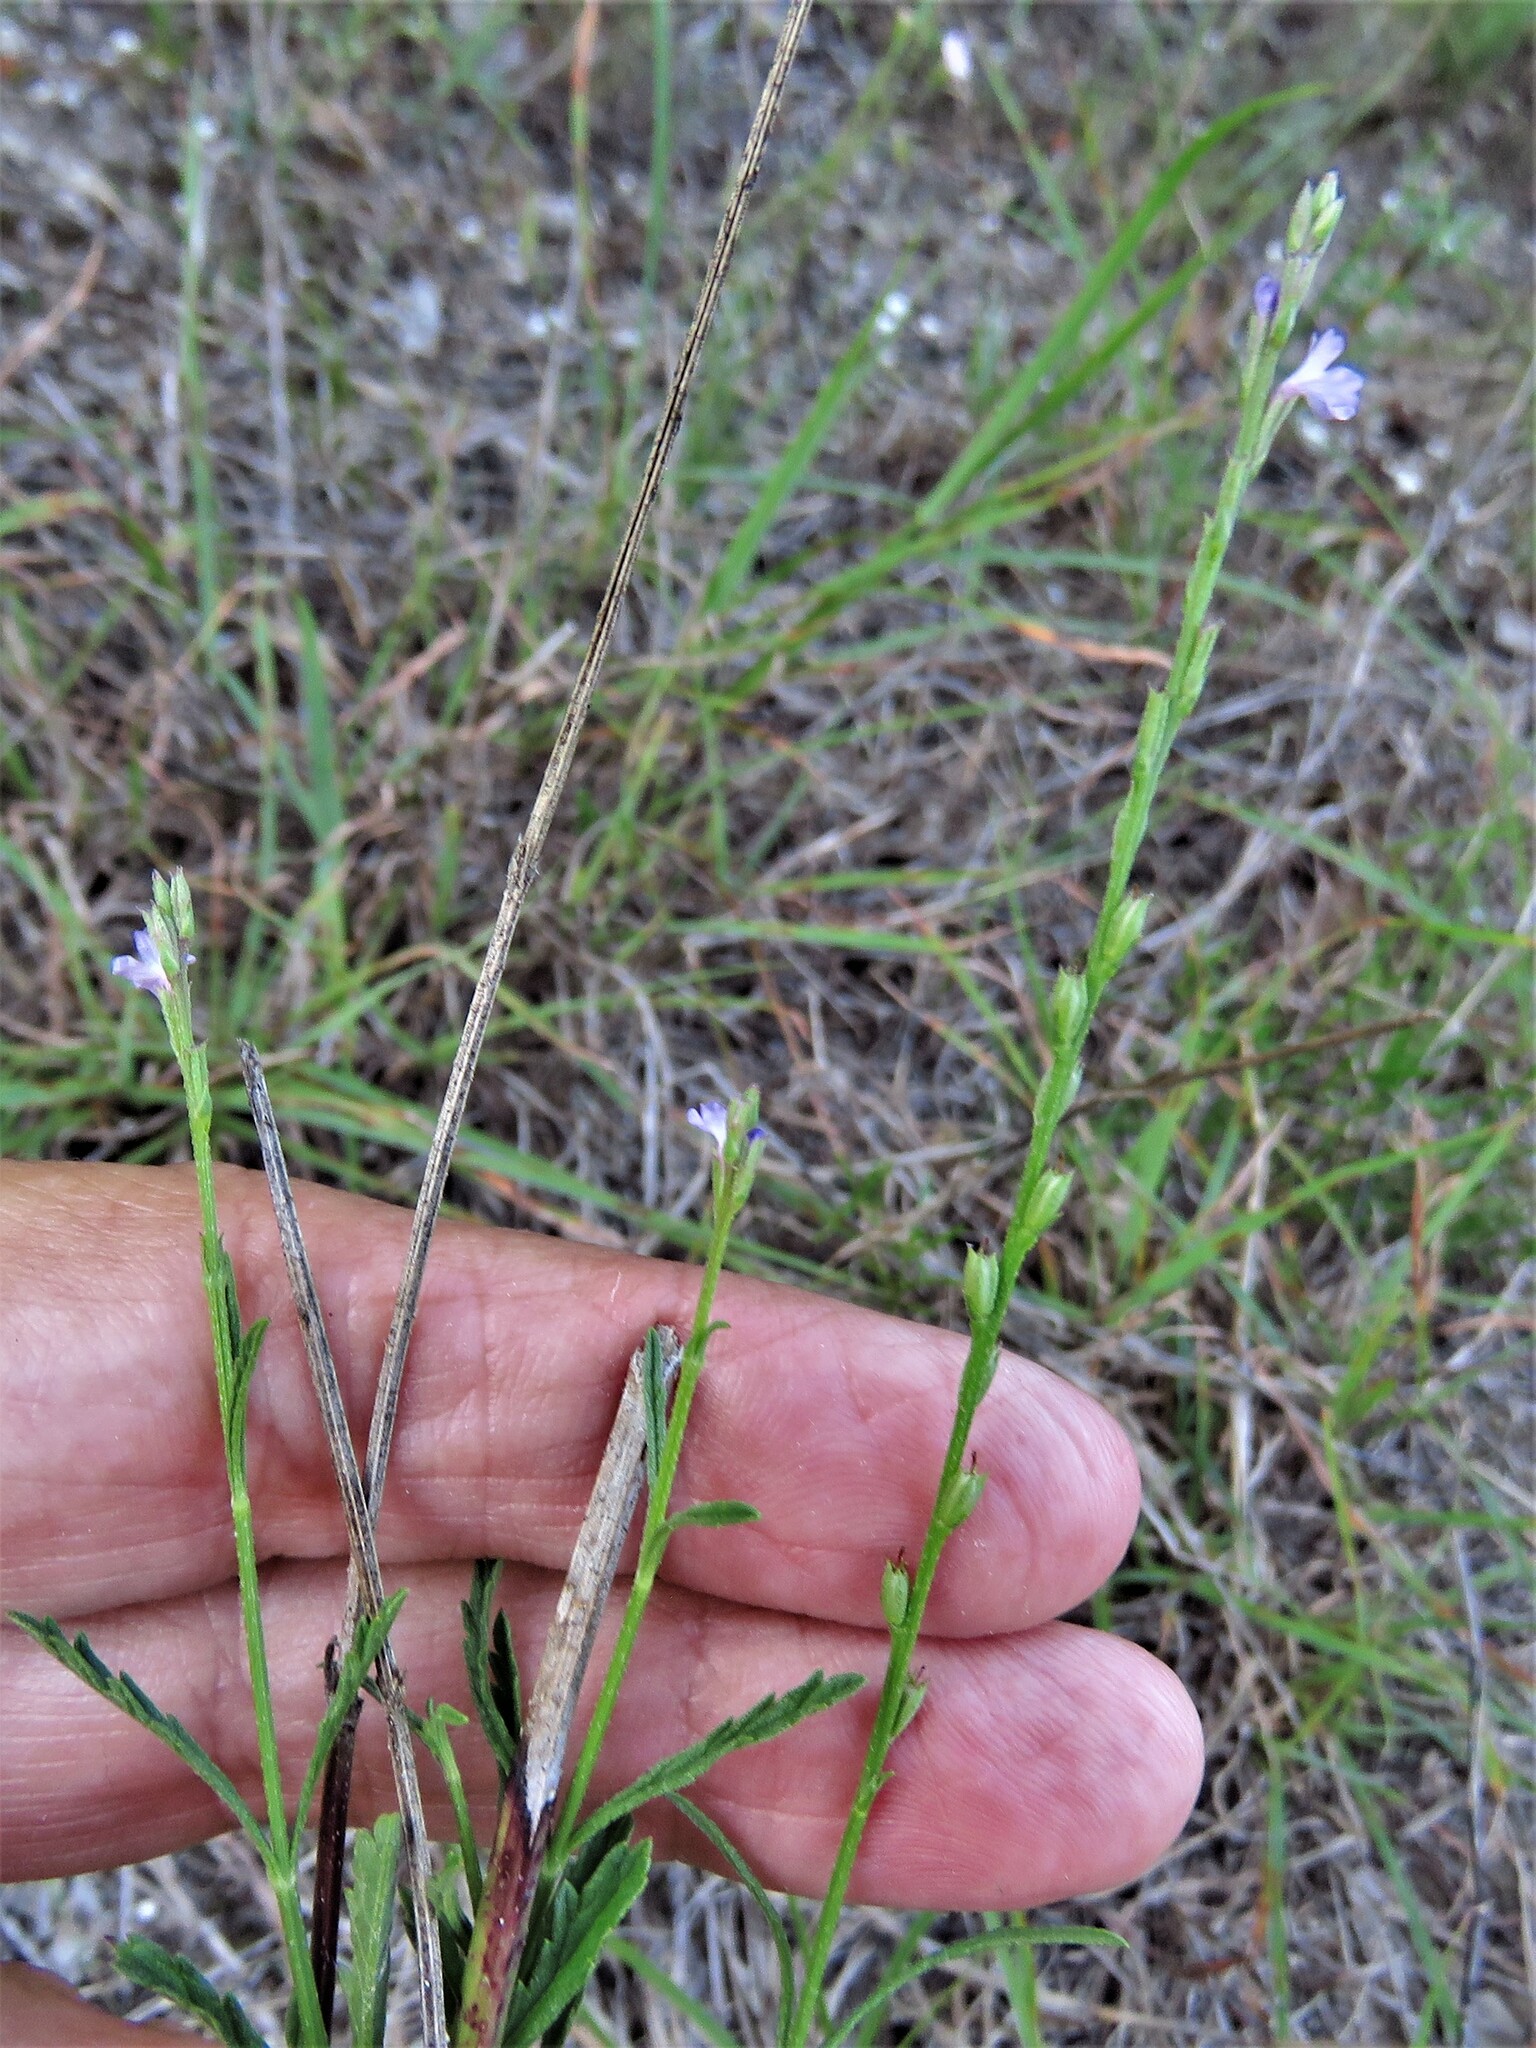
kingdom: Plantae
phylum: Tracheophyta
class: Magnoliopsida
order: Lamiales
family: Verbenaceae
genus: Verbena
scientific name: Verbena halei
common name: Texas vervain
